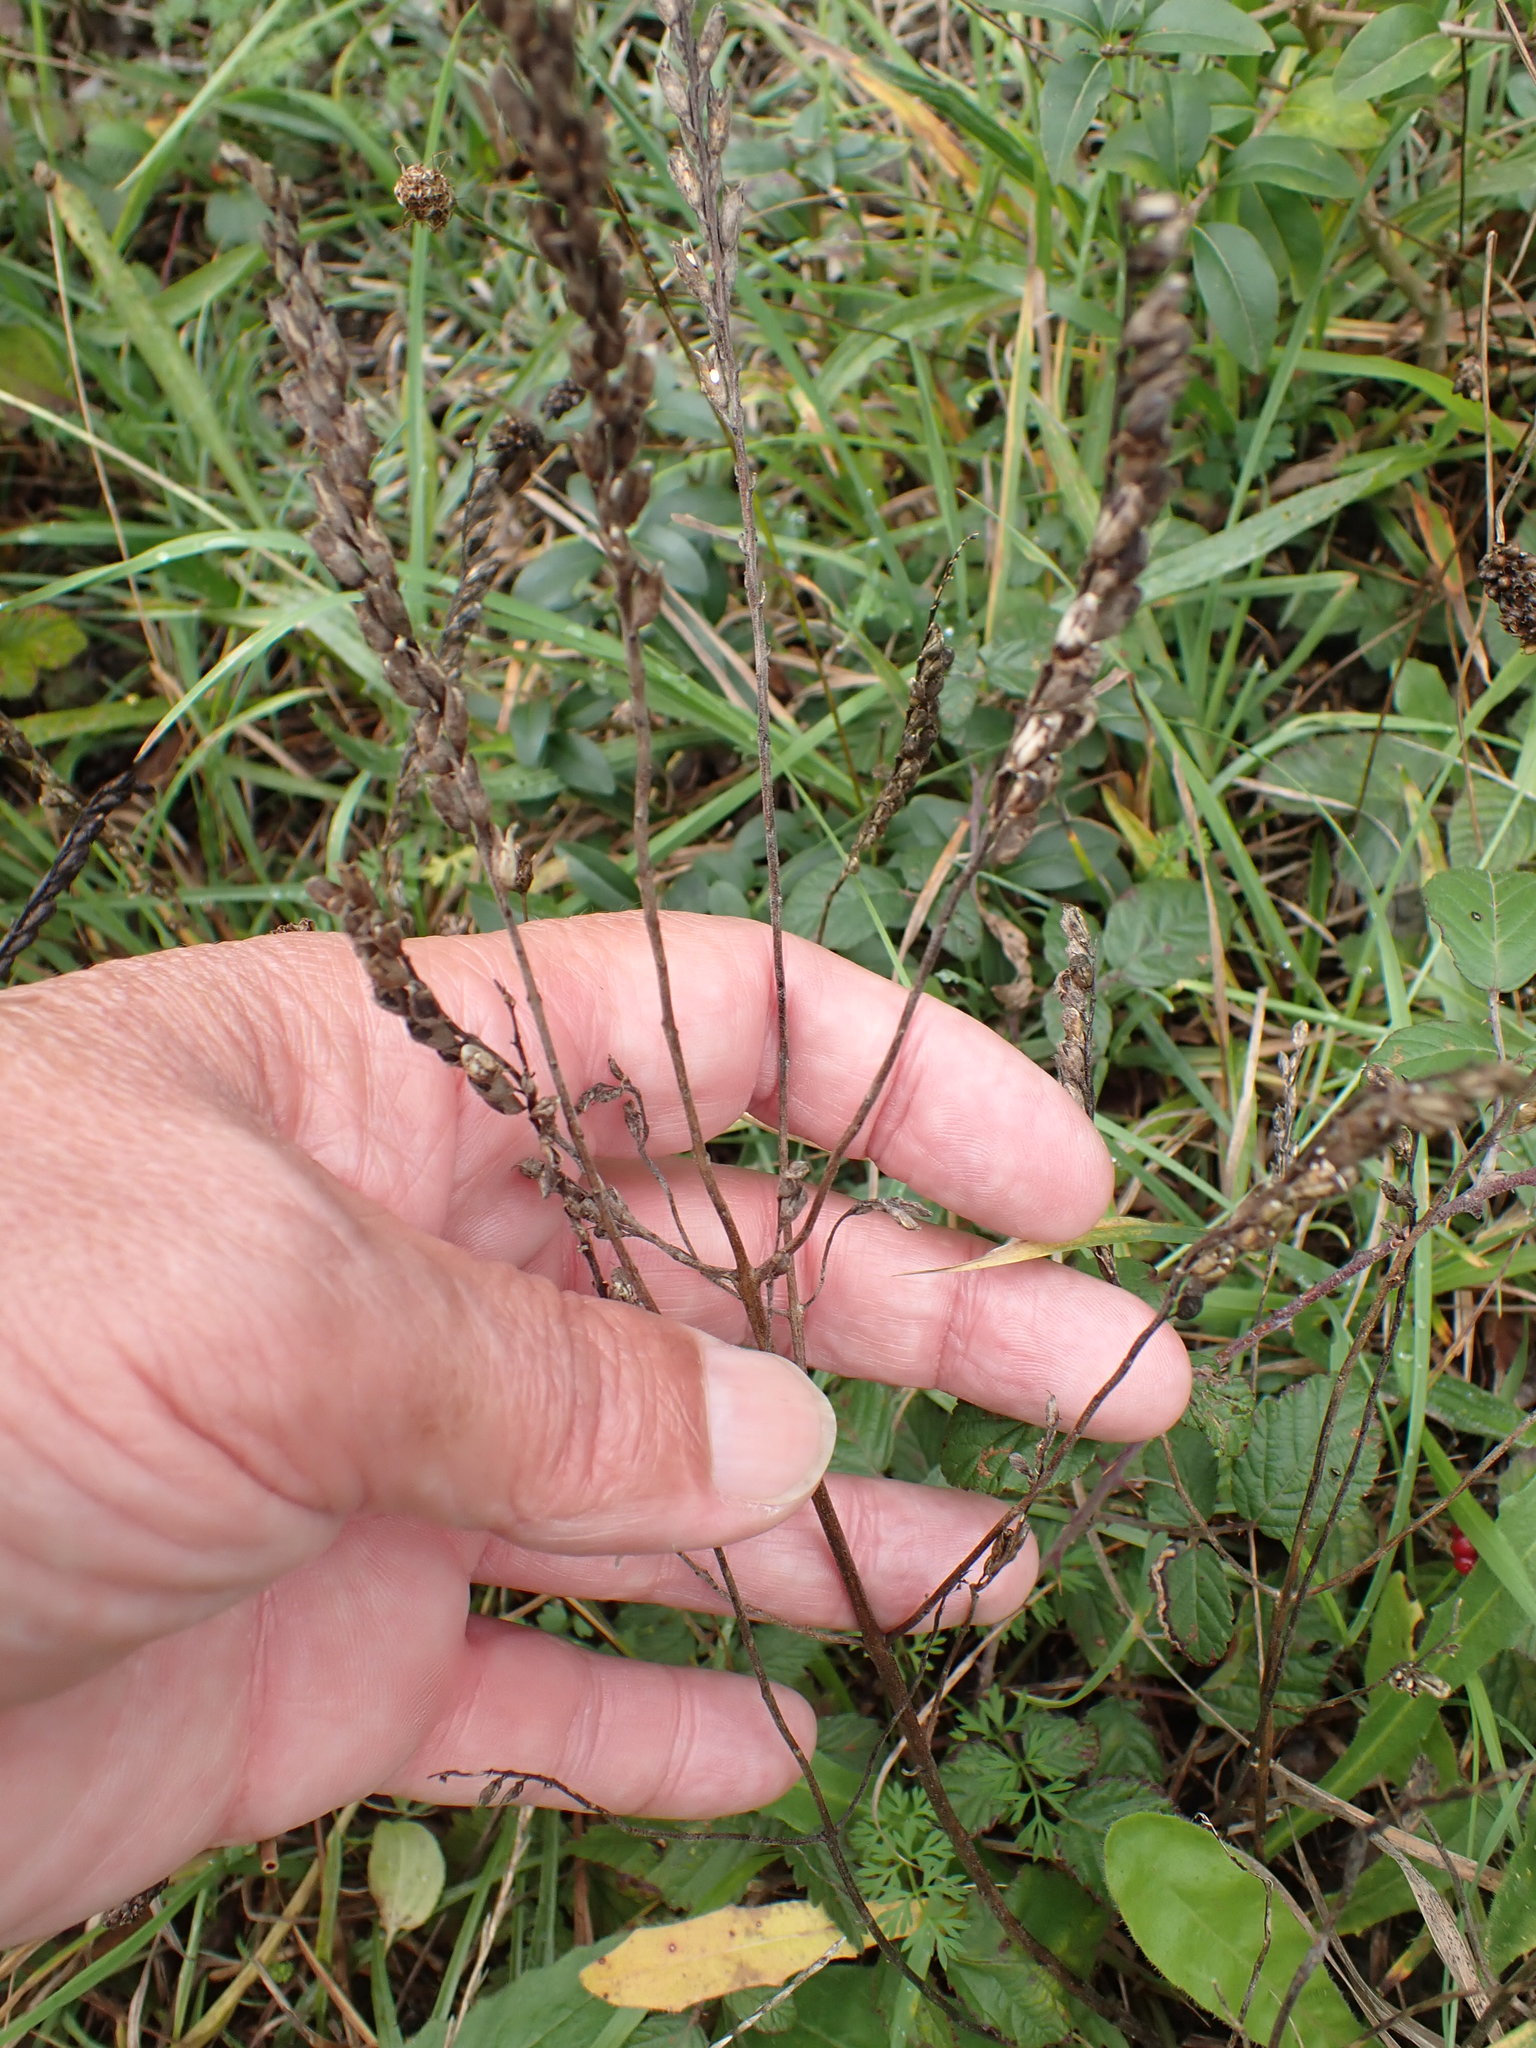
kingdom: Plantae
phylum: Tracheophyta
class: Magnoliopsida
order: Lamiales
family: Orobanchaceae
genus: Odontites
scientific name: Odontites vulgaris
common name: Broomrape
